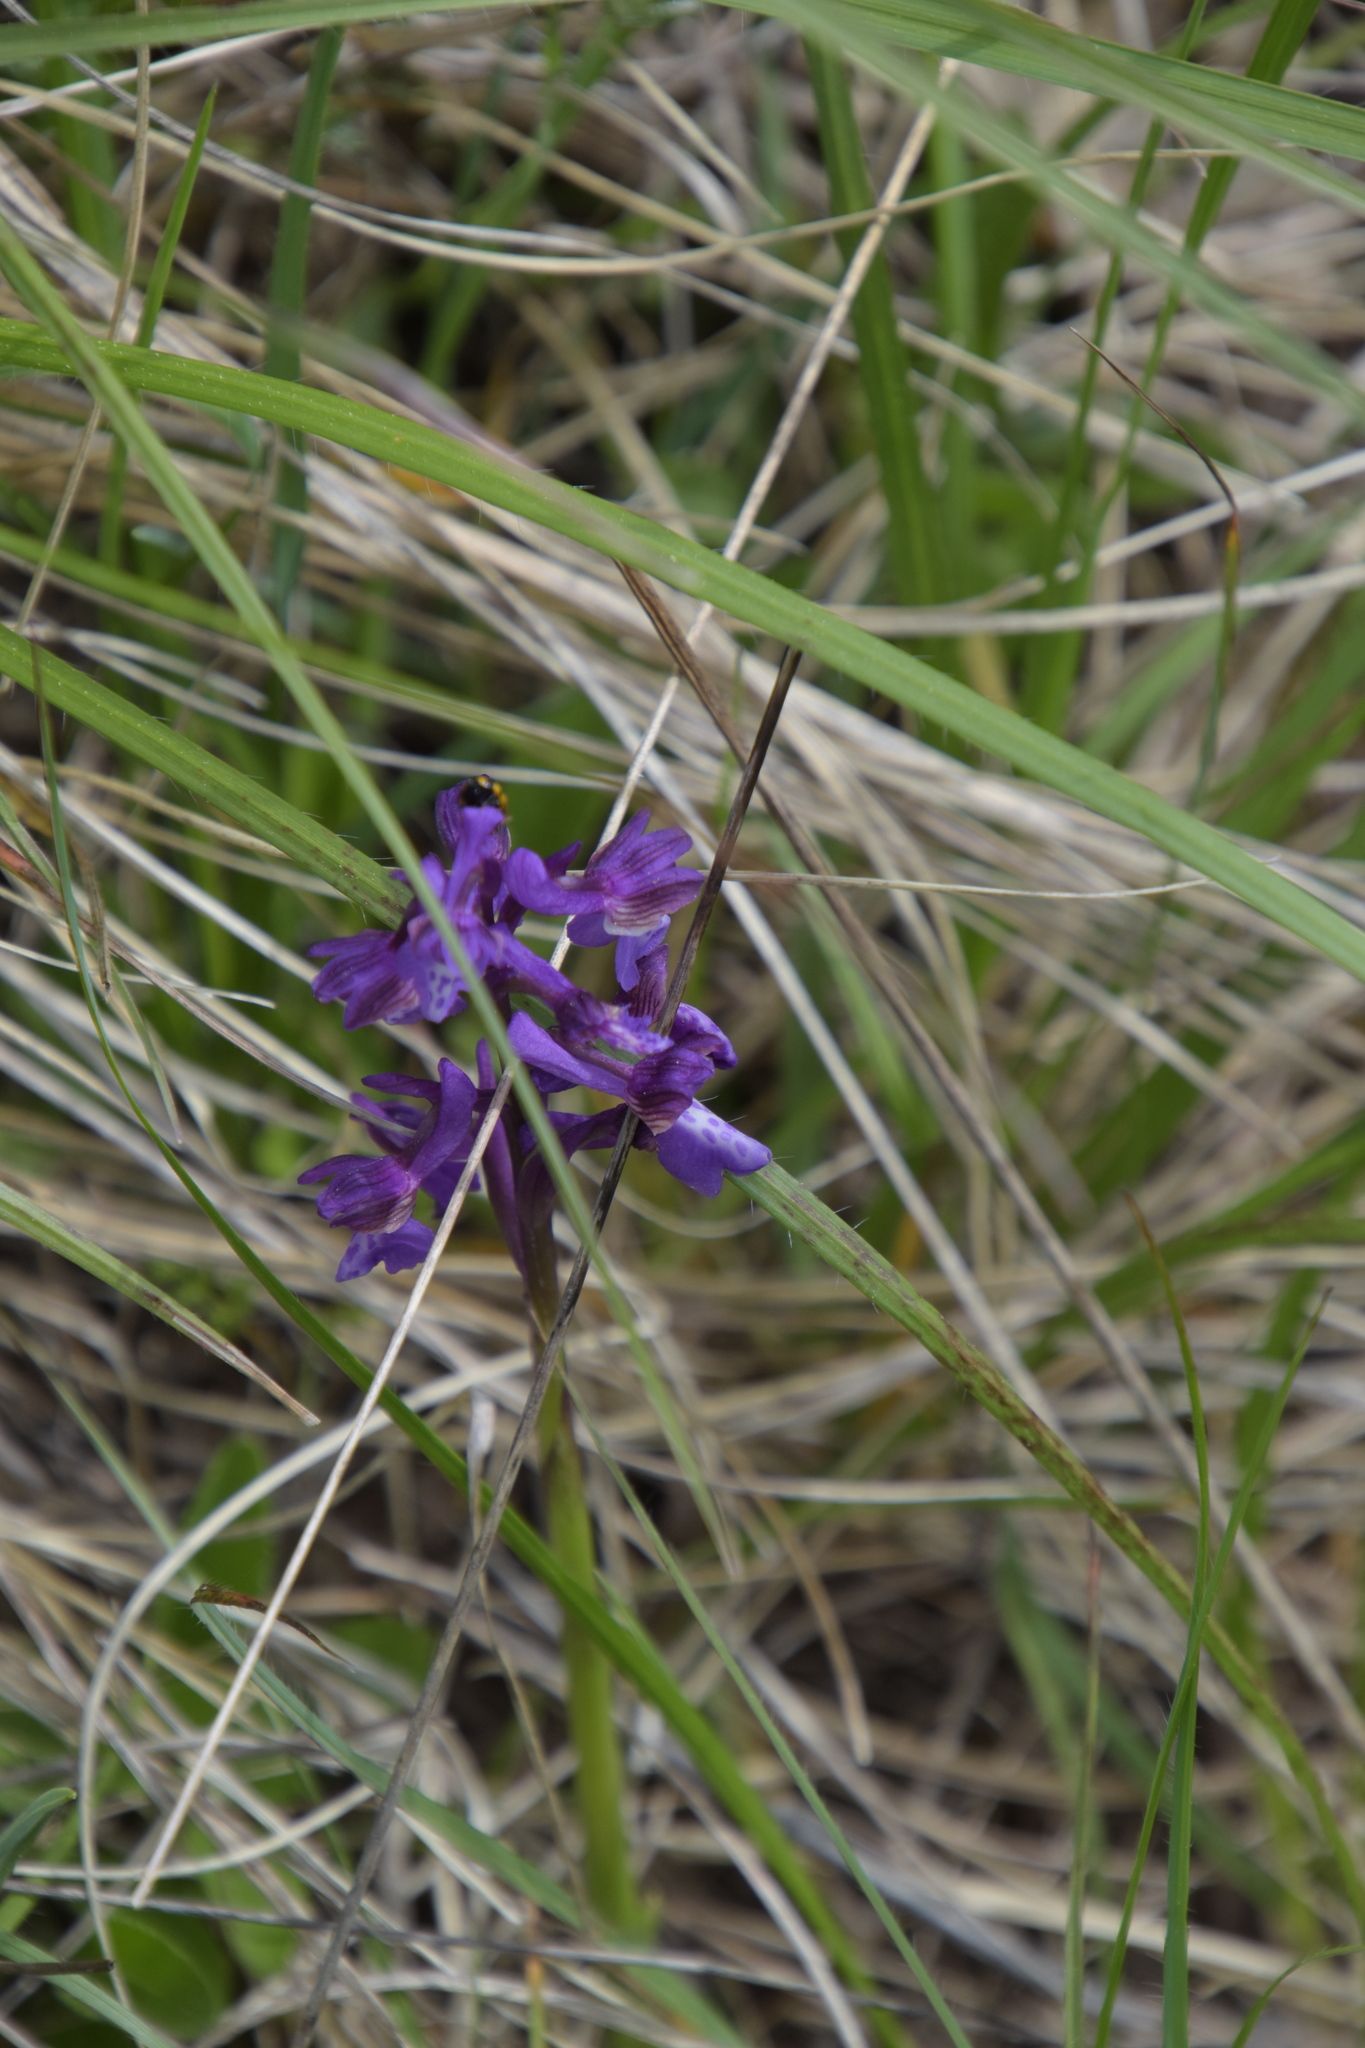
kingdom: Plantae
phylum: Tracheophyta
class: Liliopsida
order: Asparagales
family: Orchidaceae
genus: Anacamptis
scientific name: Anacamptis morio
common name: Green-winged orchid
